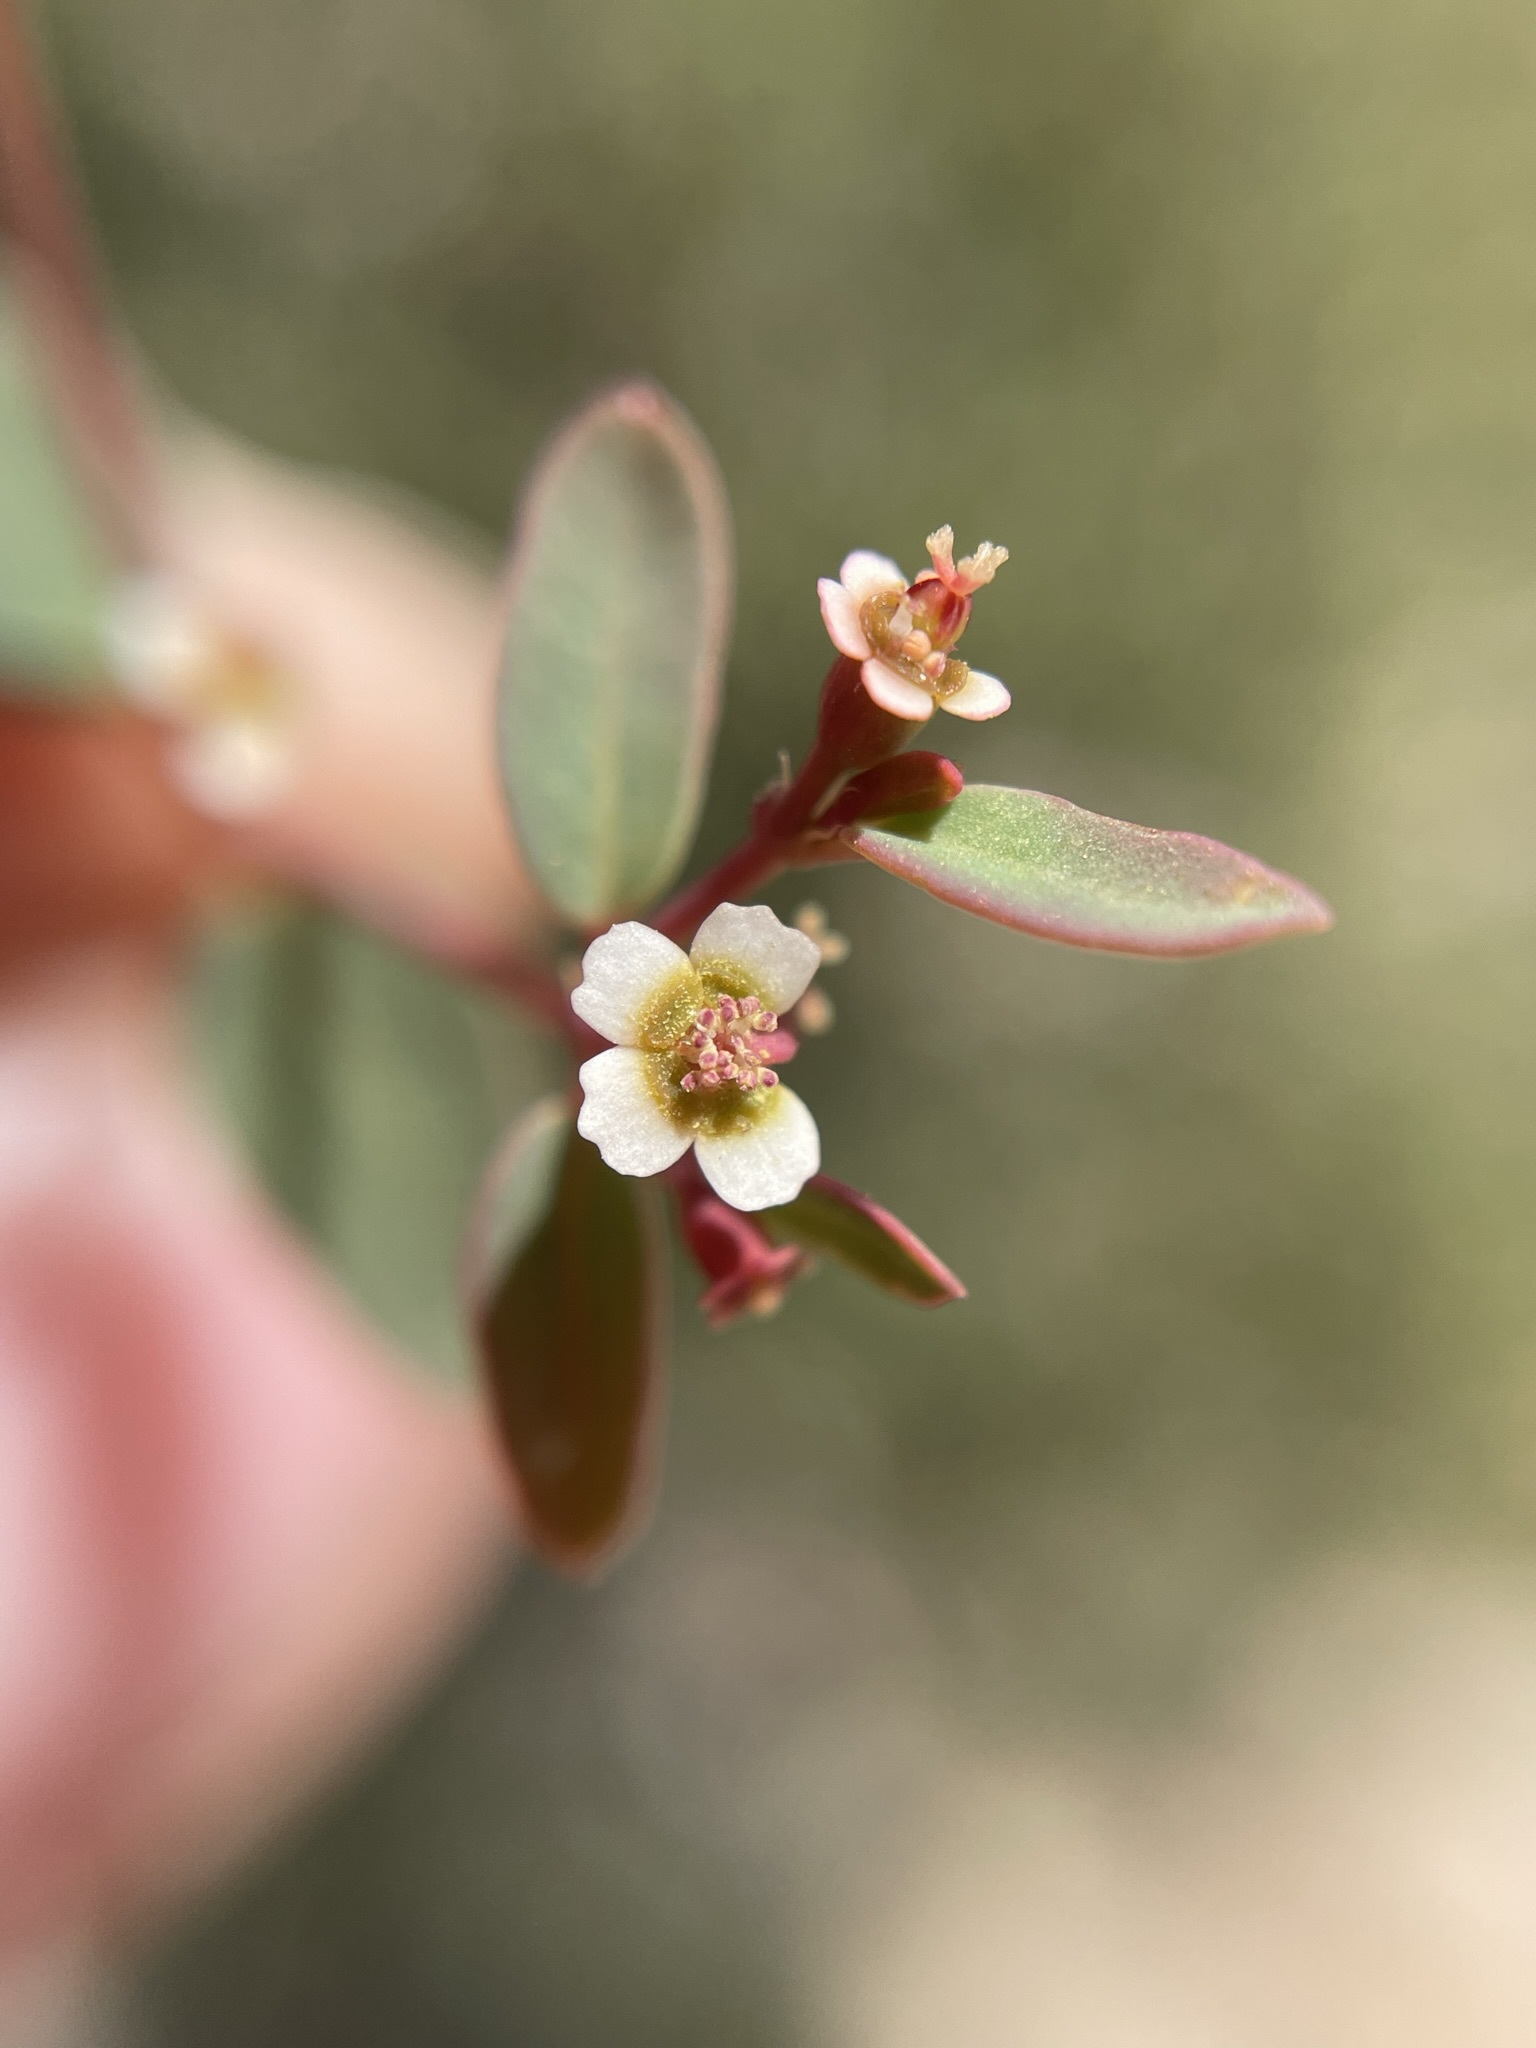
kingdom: Plantae
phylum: Tracheophyta
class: Magnoliopsida
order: Malpighiales
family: Euphorbiaceae
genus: Euphorbia
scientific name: Euphorbia fendleri
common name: Fendler's euphorbia
